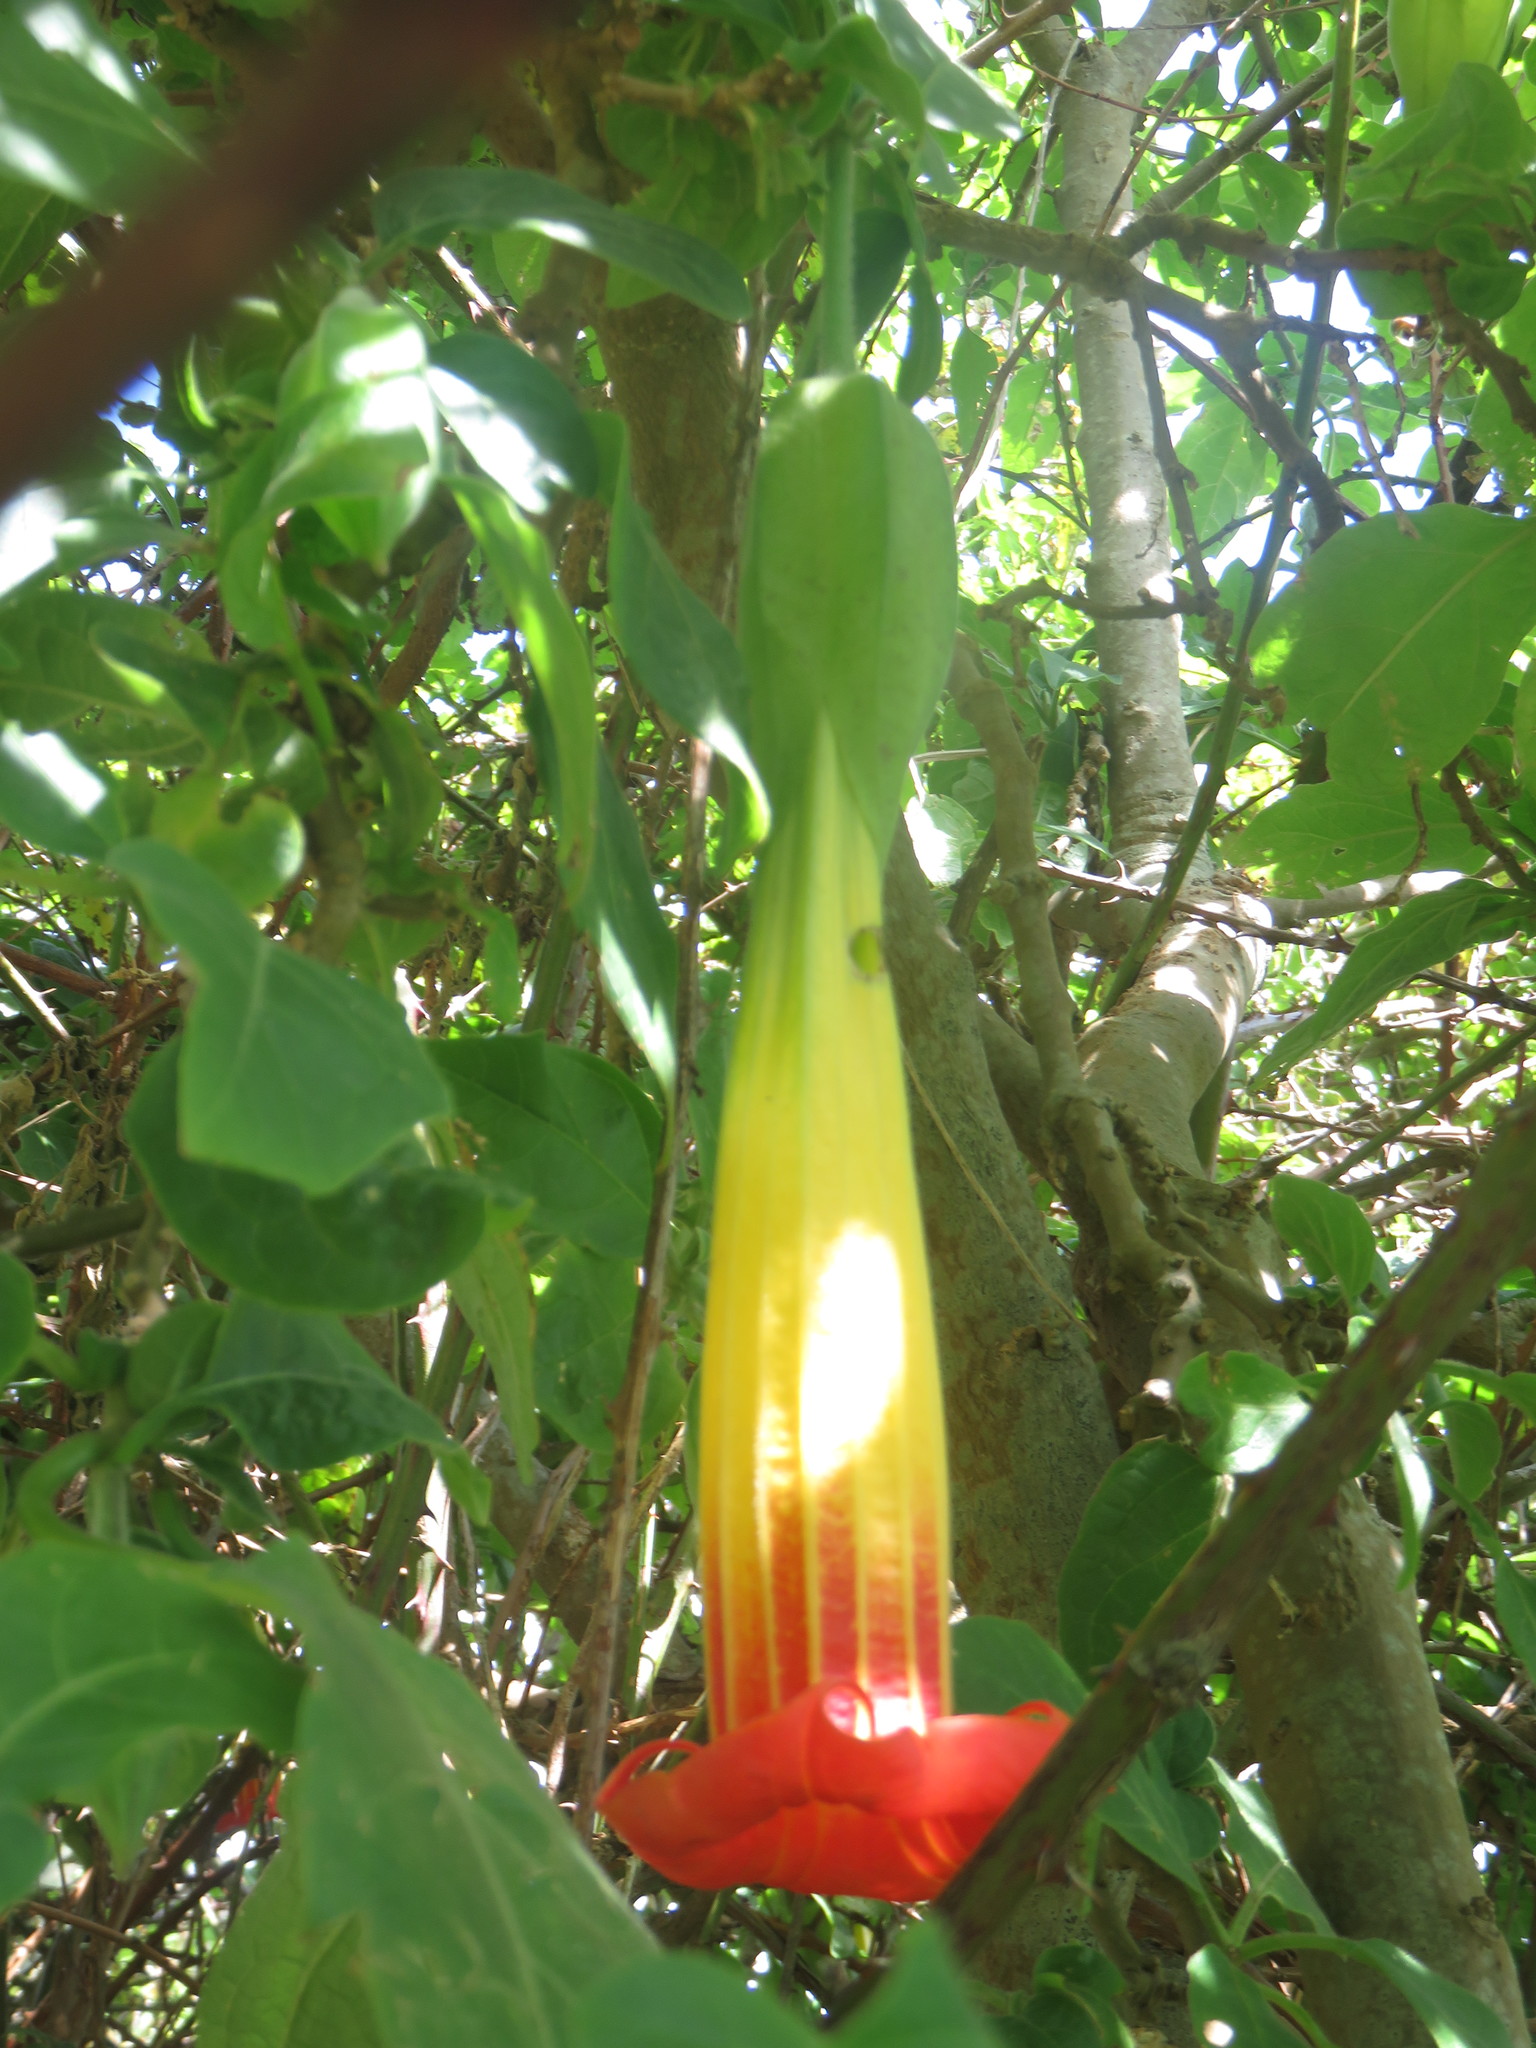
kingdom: Plantae
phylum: Tracheophyta
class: Magnoliopsida
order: Solanales
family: Solanaceae
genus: Brugmansia
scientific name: Brugmansia sanguinea
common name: Red floripontio
